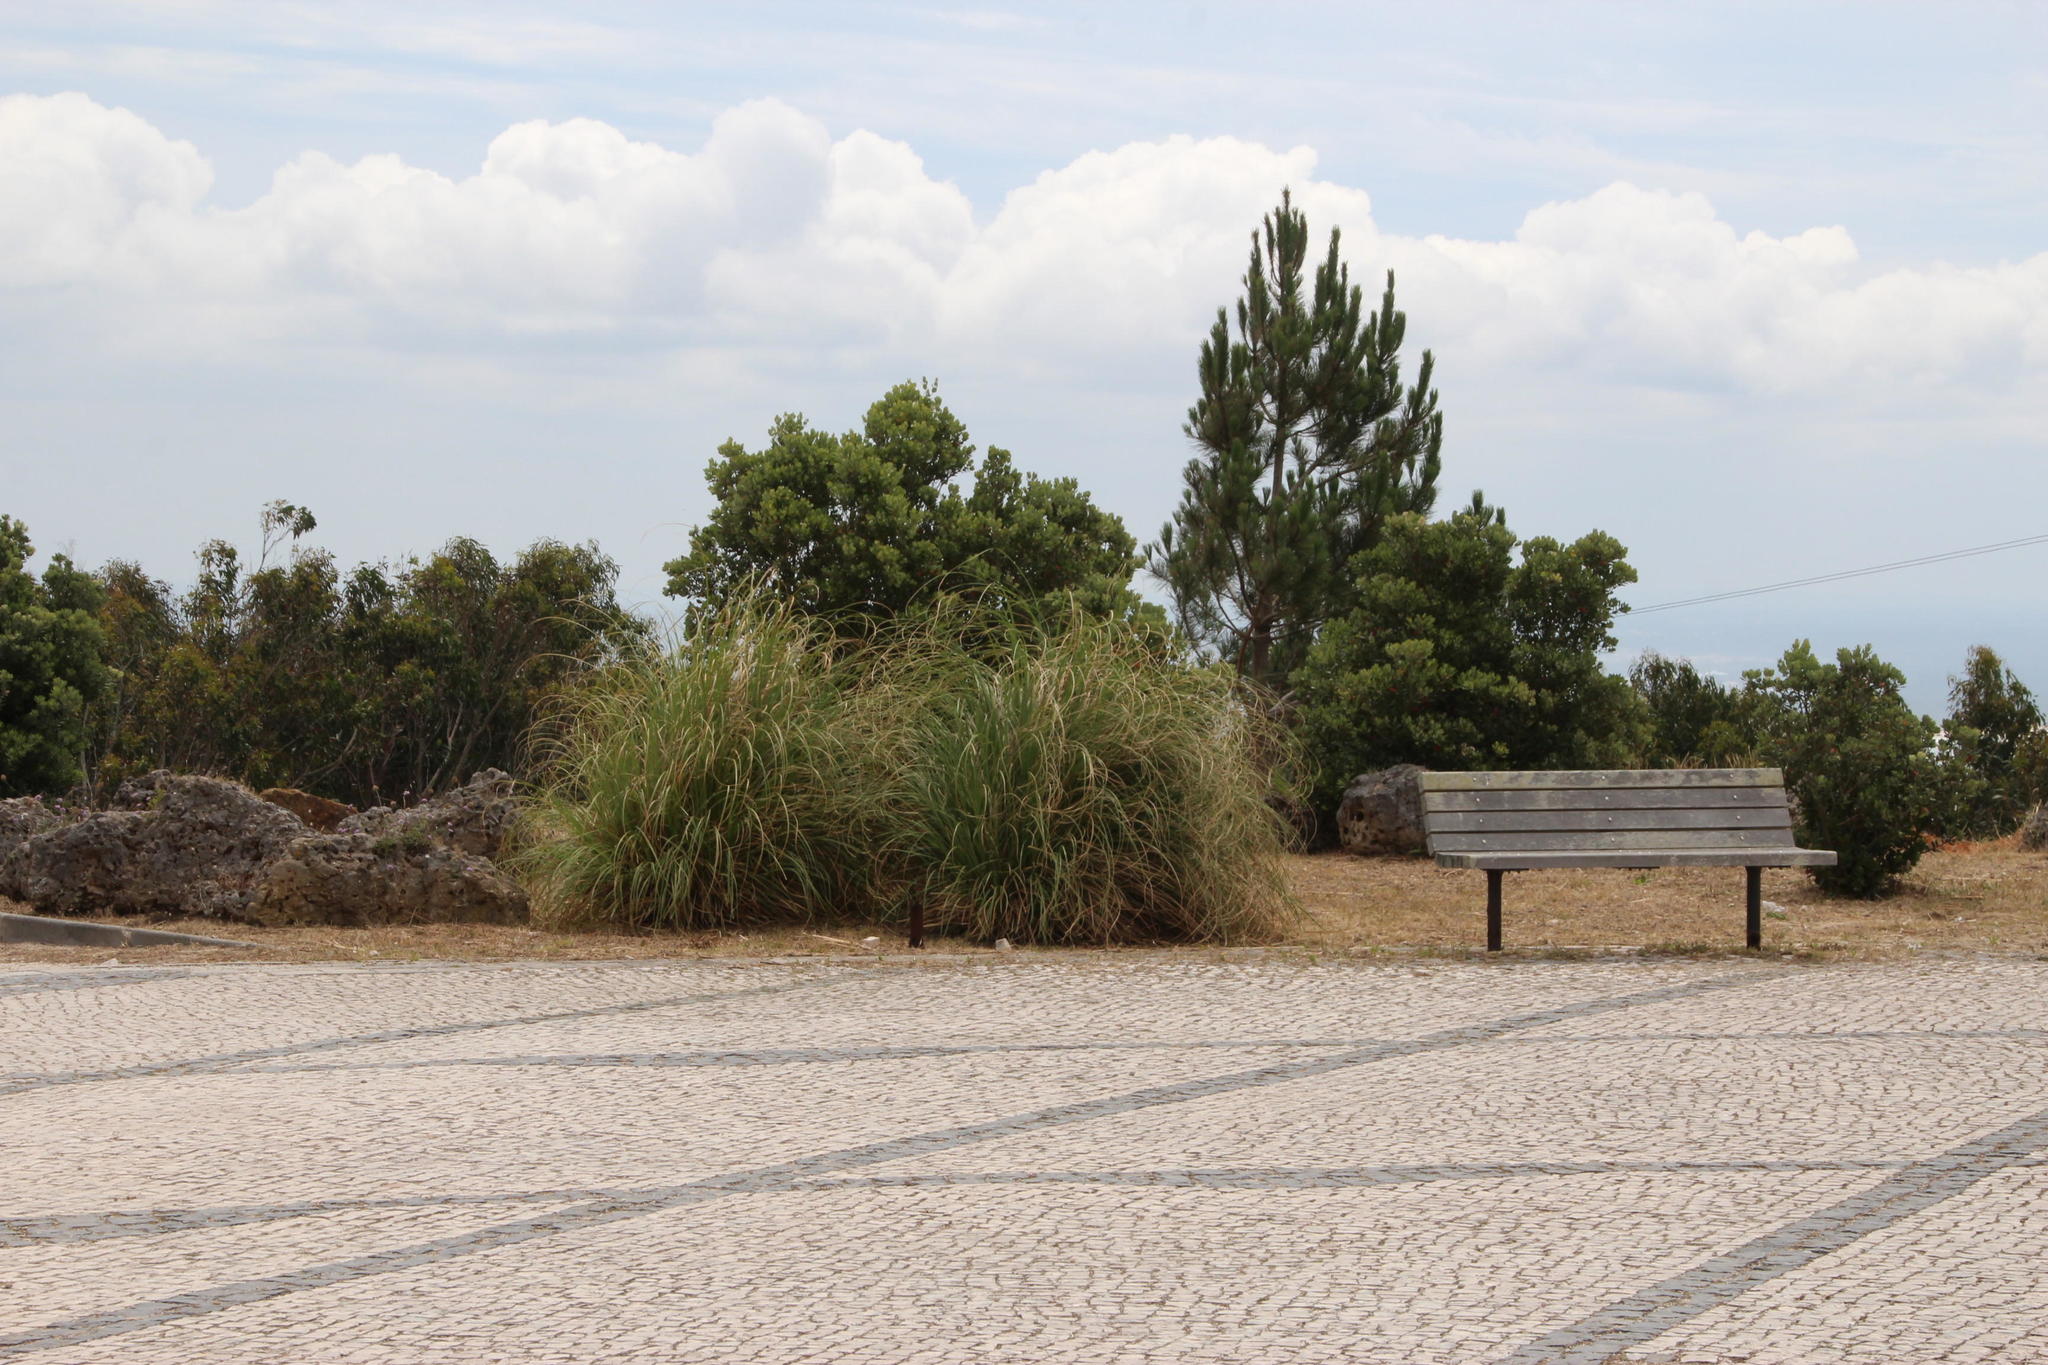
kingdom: Plantae
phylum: Tracheophyta
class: Liliopsida
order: Poales
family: Poaceae
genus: Cortaderia
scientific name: Cortaderia selloana
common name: Uruguayan pampas grass
